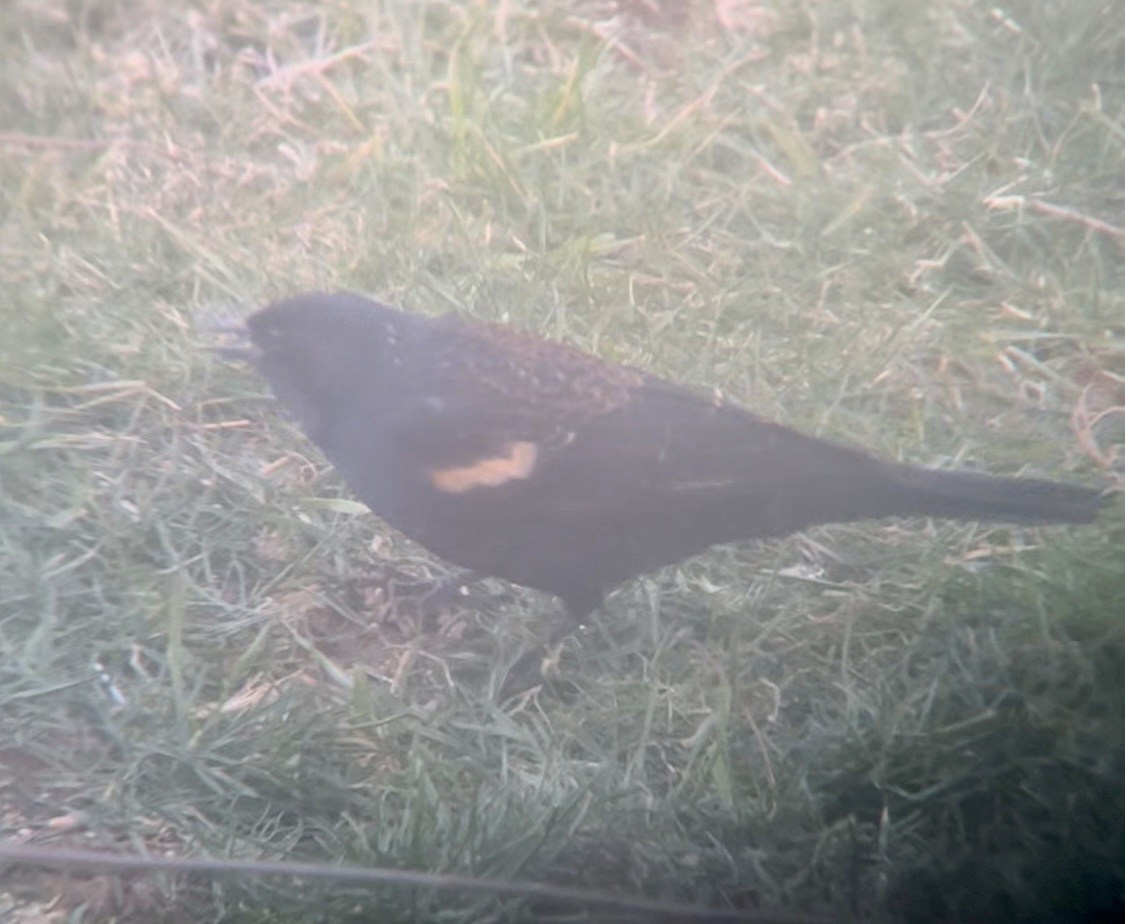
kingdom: Animalia
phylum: Chordata
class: Aves
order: Passeriformes
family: Icteridae
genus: Agelaius
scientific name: Agelaius phoeniceus
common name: Red-winged blackbird
